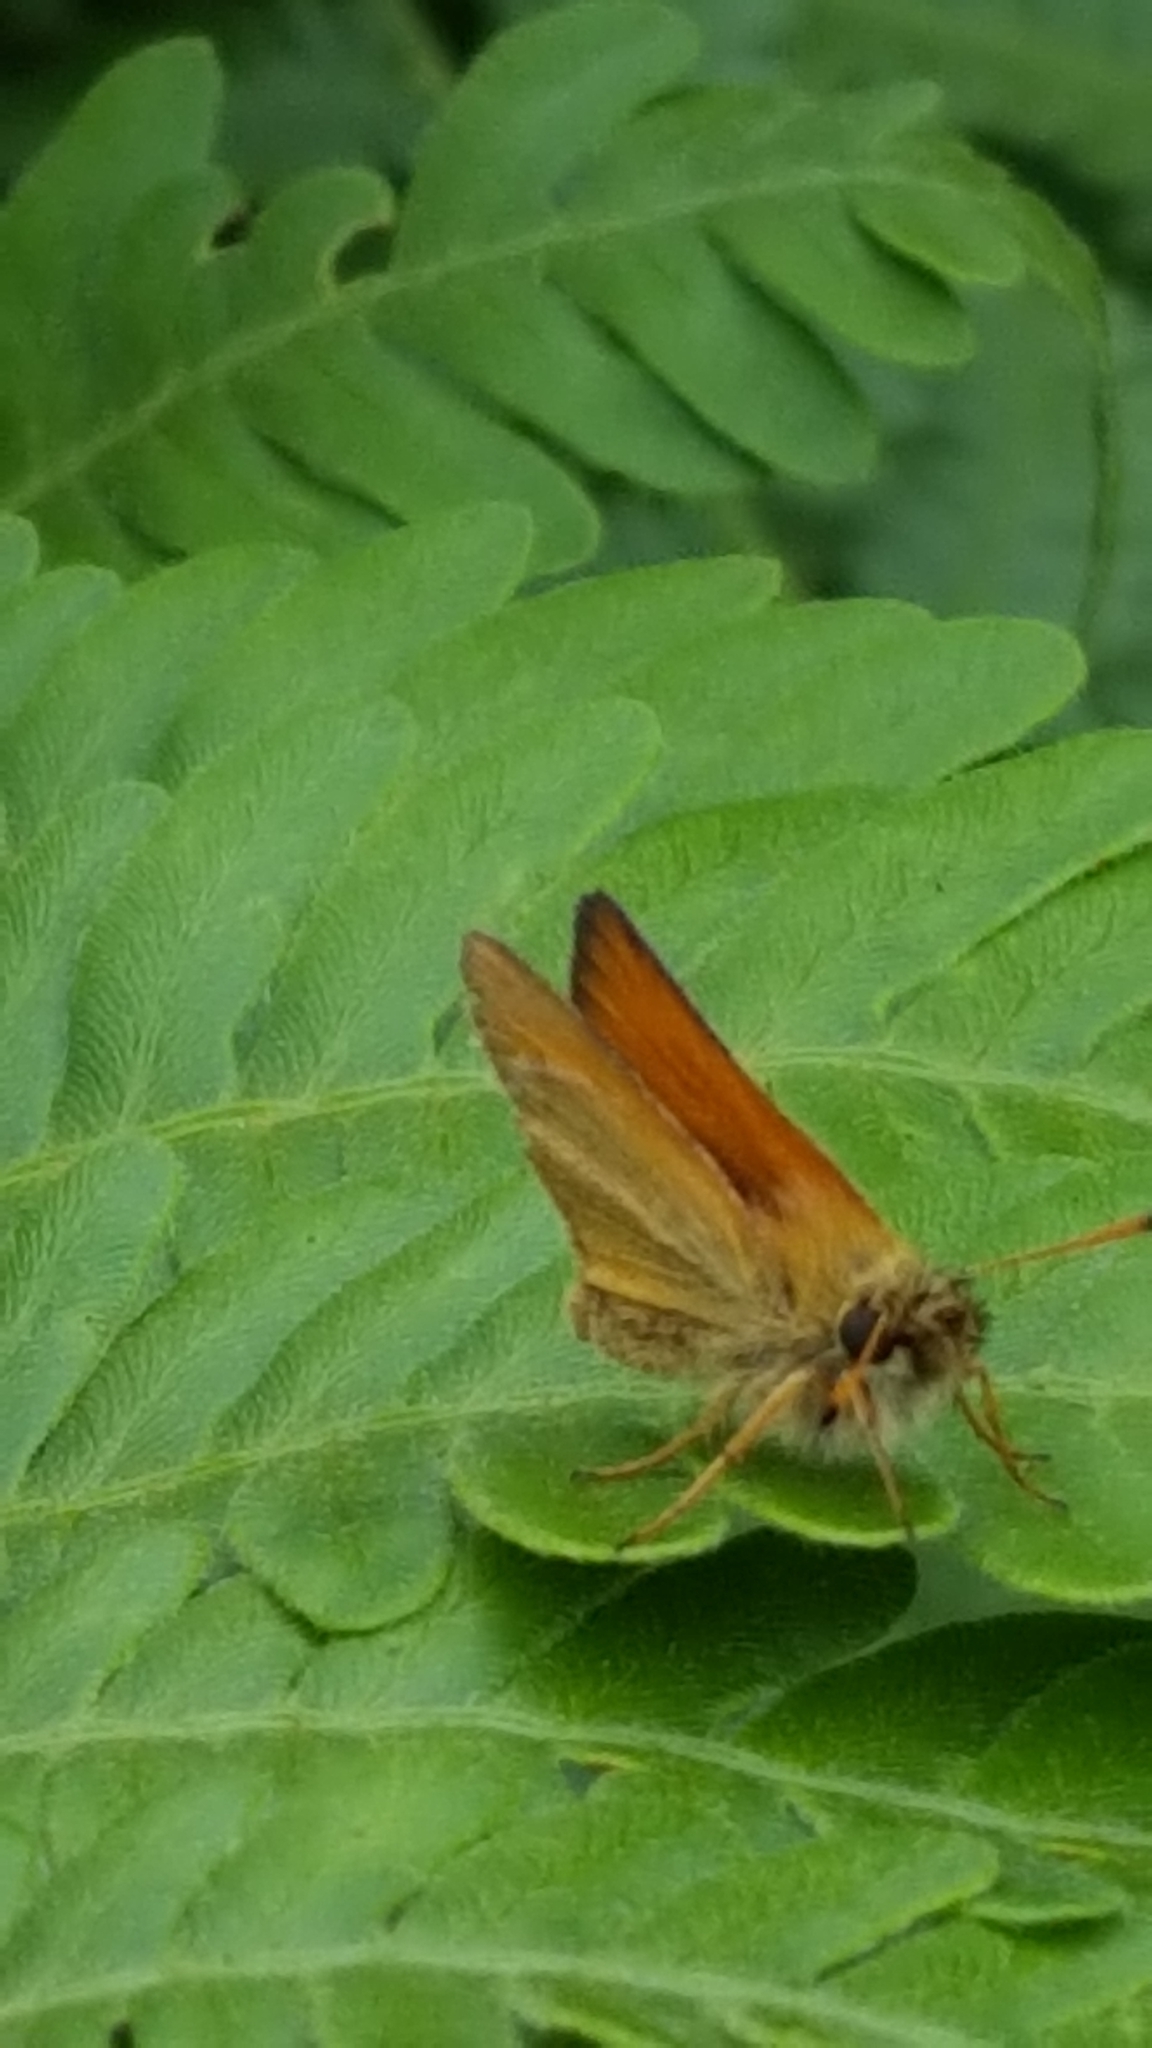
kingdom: Animalia
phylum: Arthropoda
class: Insecta
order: Lepidoptera
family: Hesperiidae
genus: Thymelicus
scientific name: Thymelicus lineola
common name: Essex skipper
